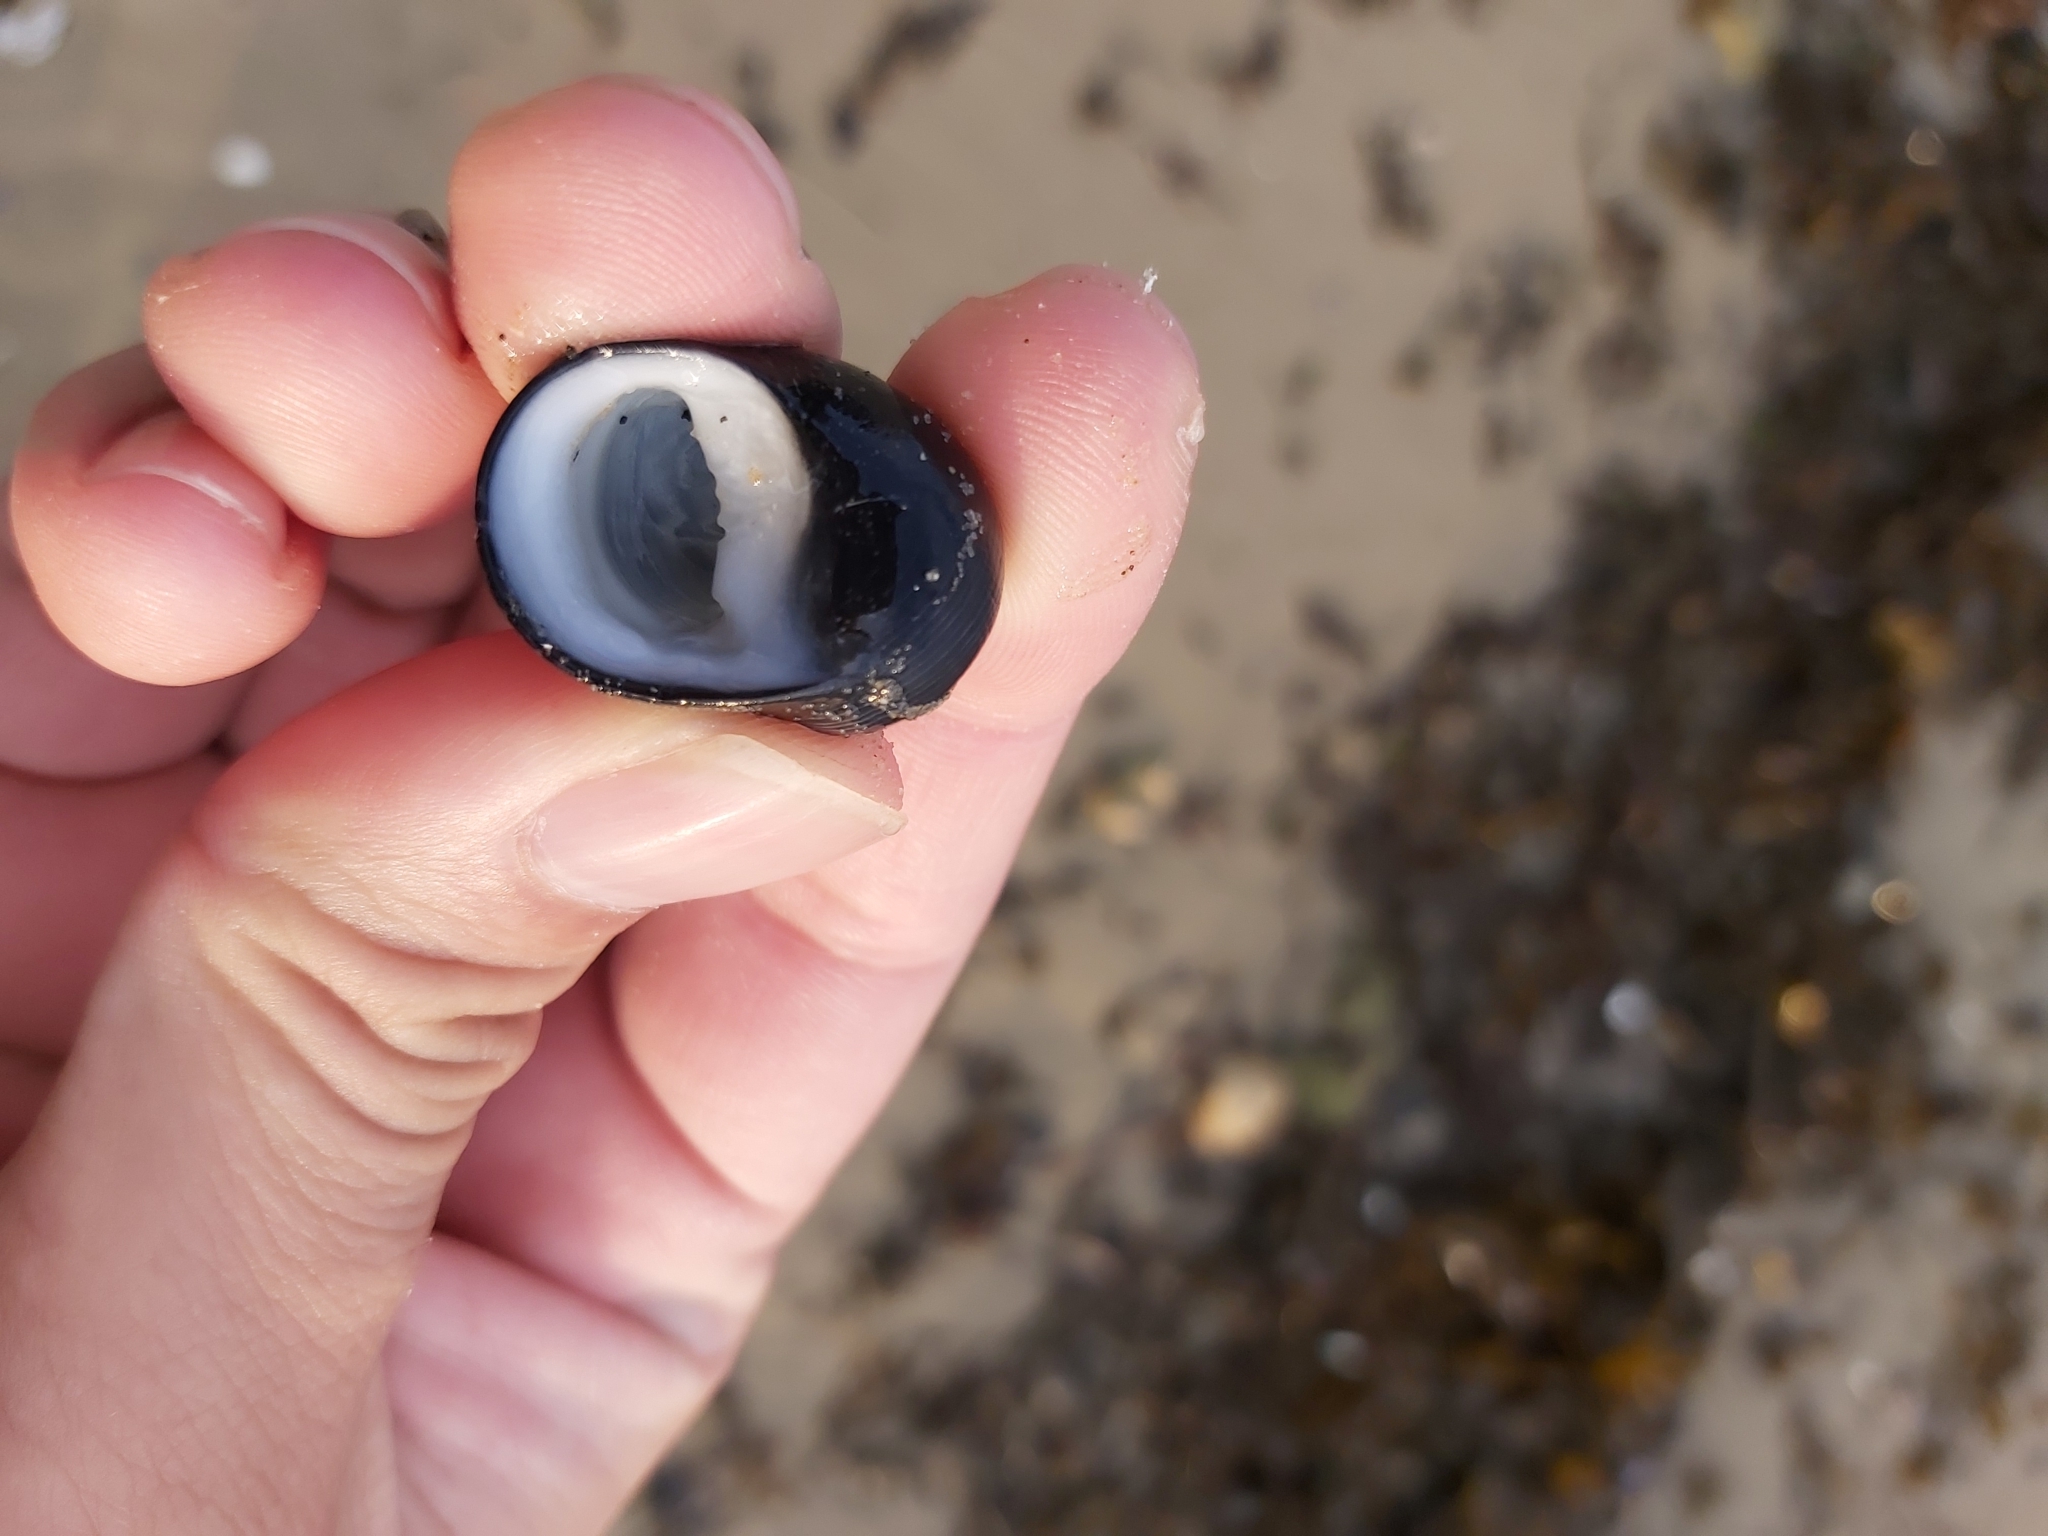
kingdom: Animalia
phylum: Mollusca
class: Gastropoda
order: Cycloneritida
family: Neritidae
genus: Nerita
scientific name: Nerita melanotragus
